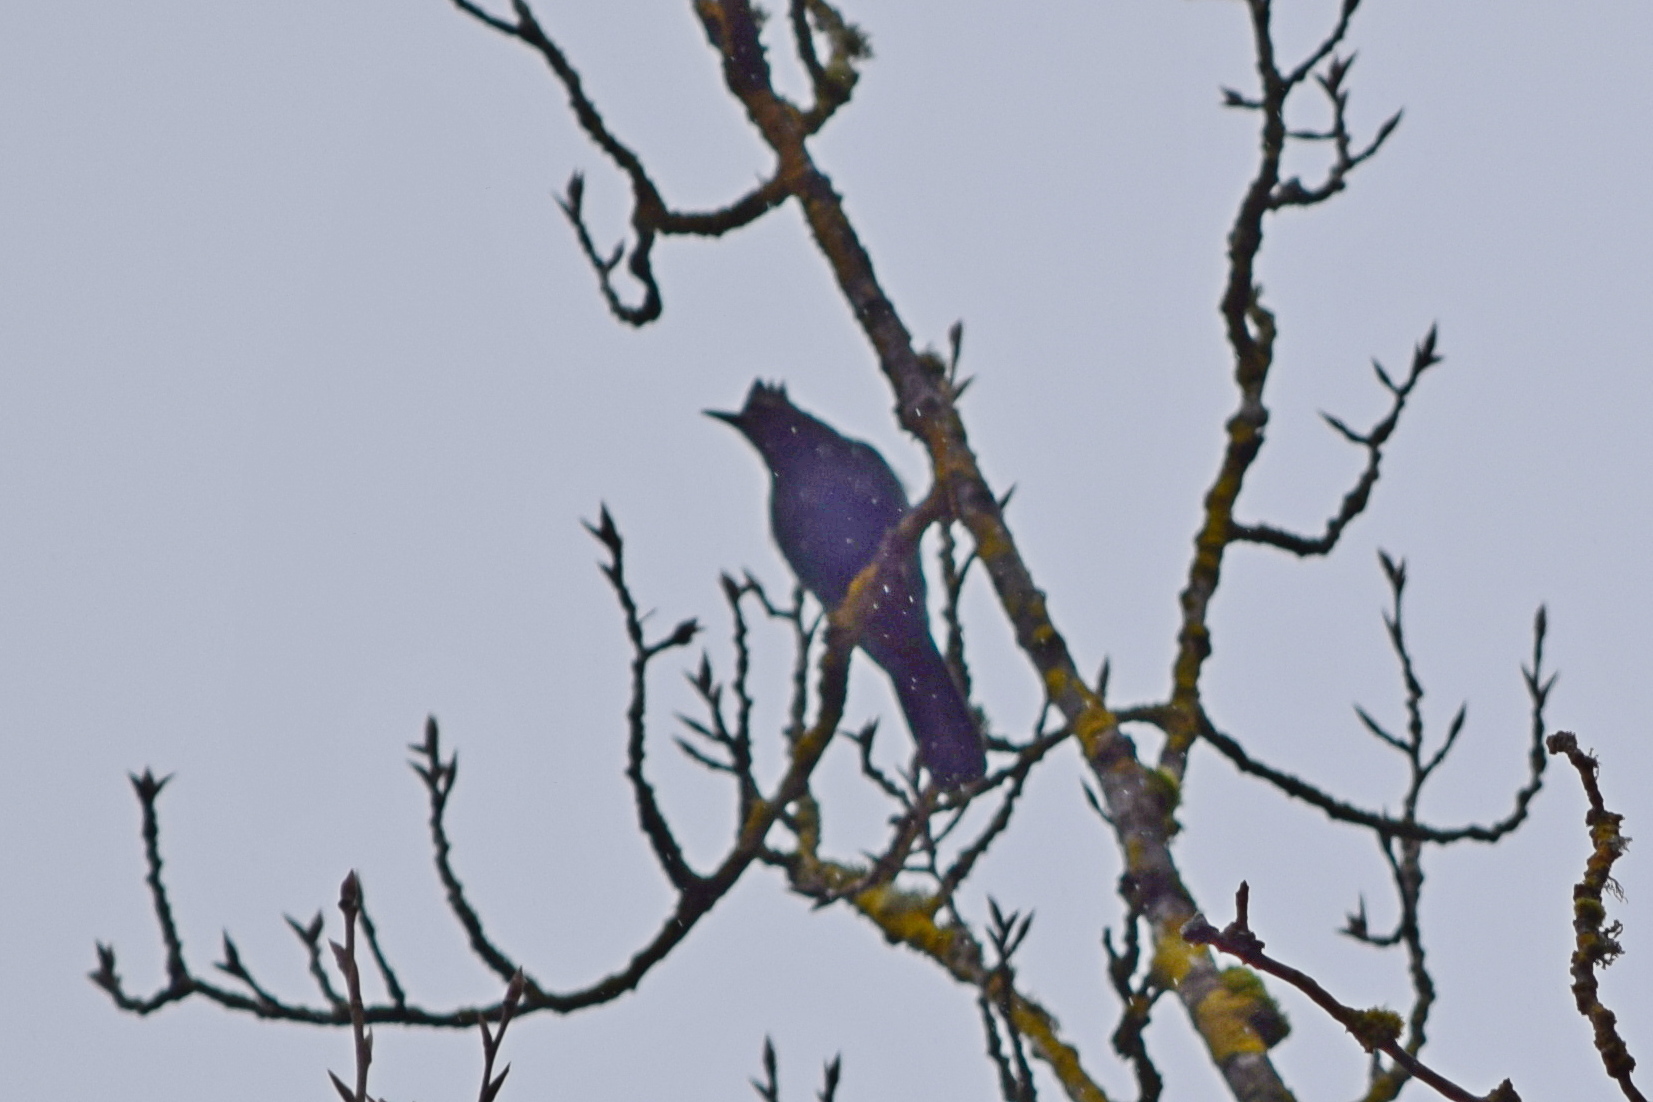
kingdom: Animalia
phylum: Chordata
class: Aves
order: Passeriformes
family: Corvidae
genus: Cyanocitta
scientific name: Cyanocitta stelleri
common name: Steller's jay
